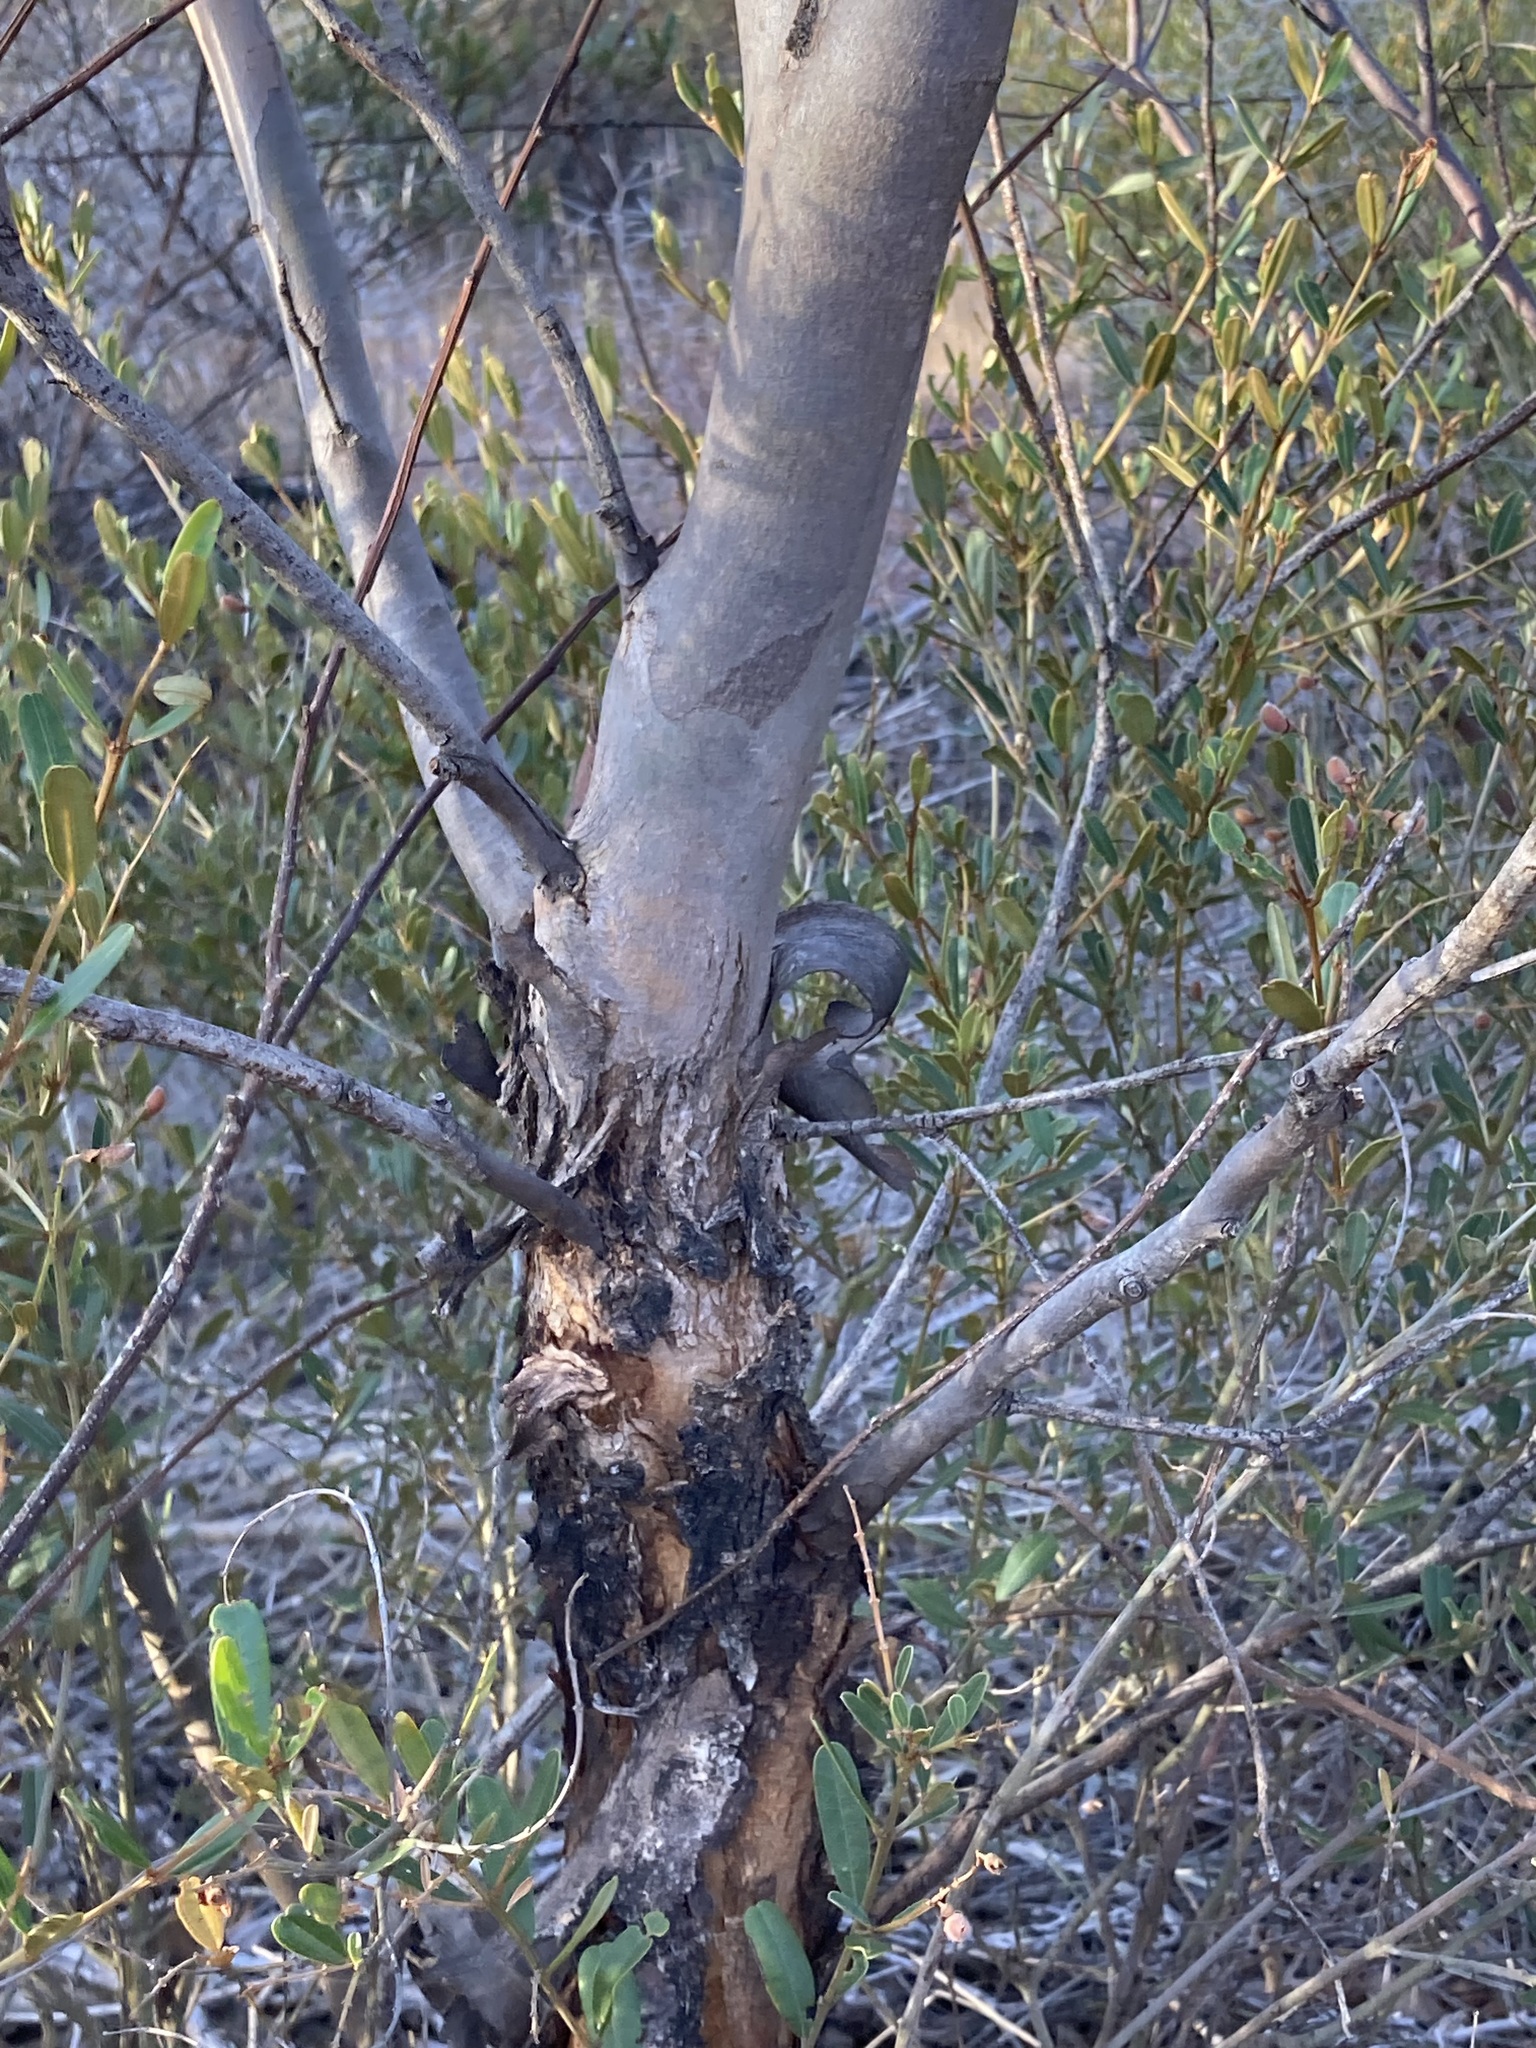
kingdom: Plantae
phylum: Tracheophyta
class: Magnoliopsida
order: Myrtales
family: Myrtaceae
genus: Eucalyptus
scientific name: Eucalyptus phenax
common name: White mallee
